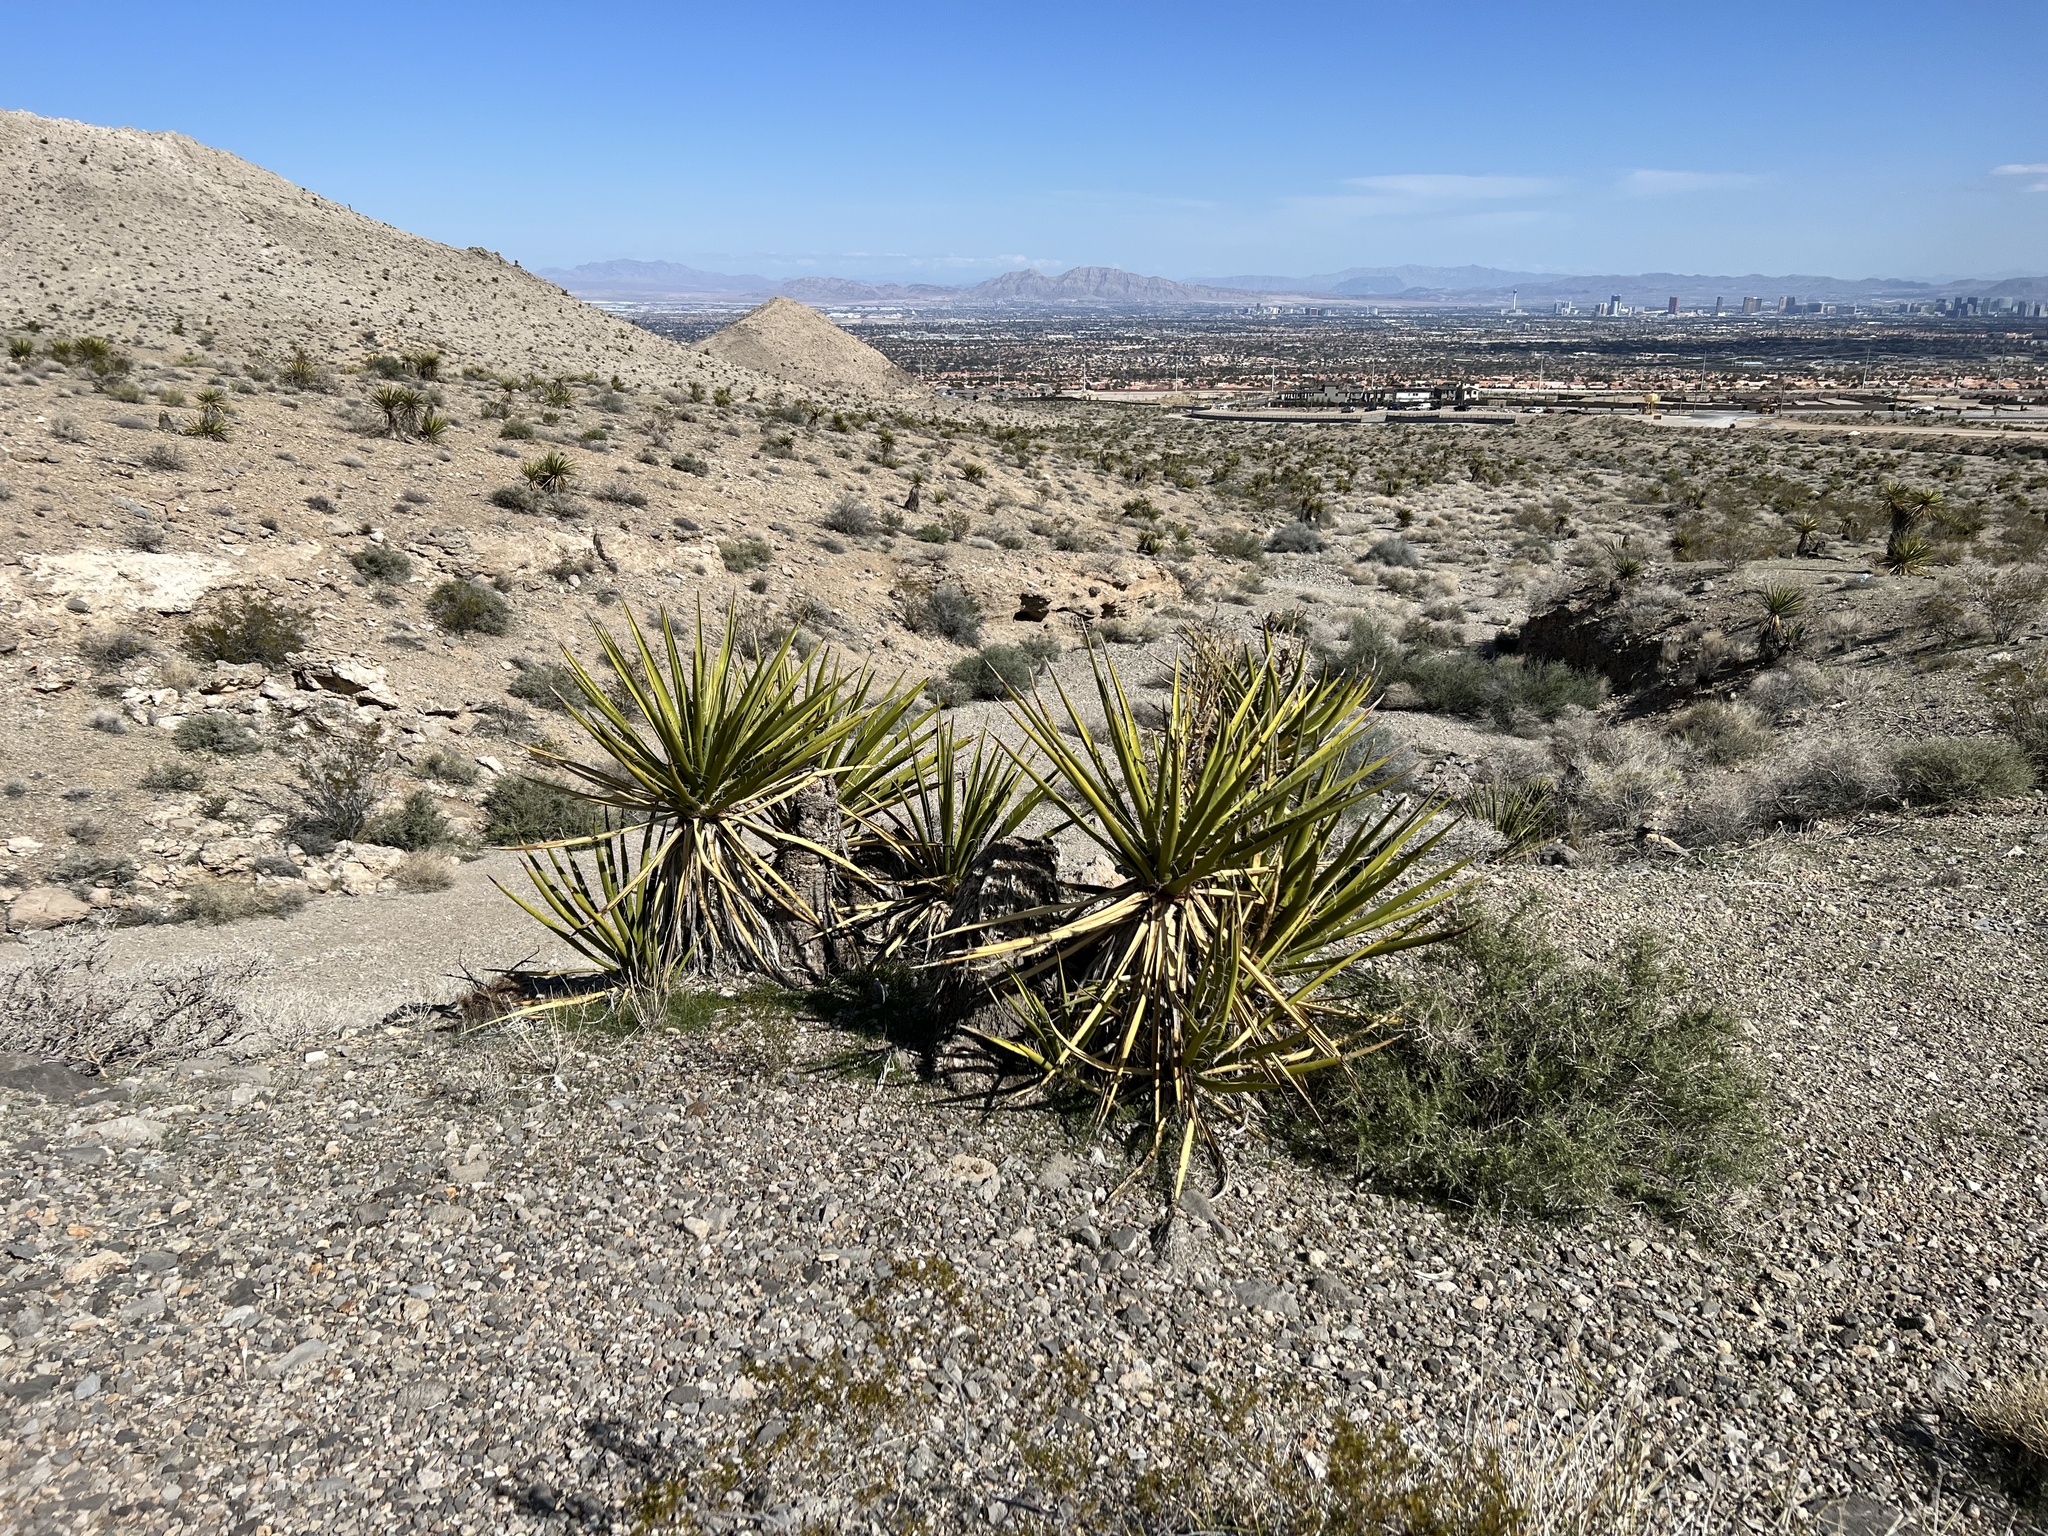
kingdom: Plantae
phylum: Tracheophyta
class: Liliopsida
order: Asparagales
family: Asparagaceae
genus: Yucca
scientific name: Yucca schidigera
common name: Mojave yucca
